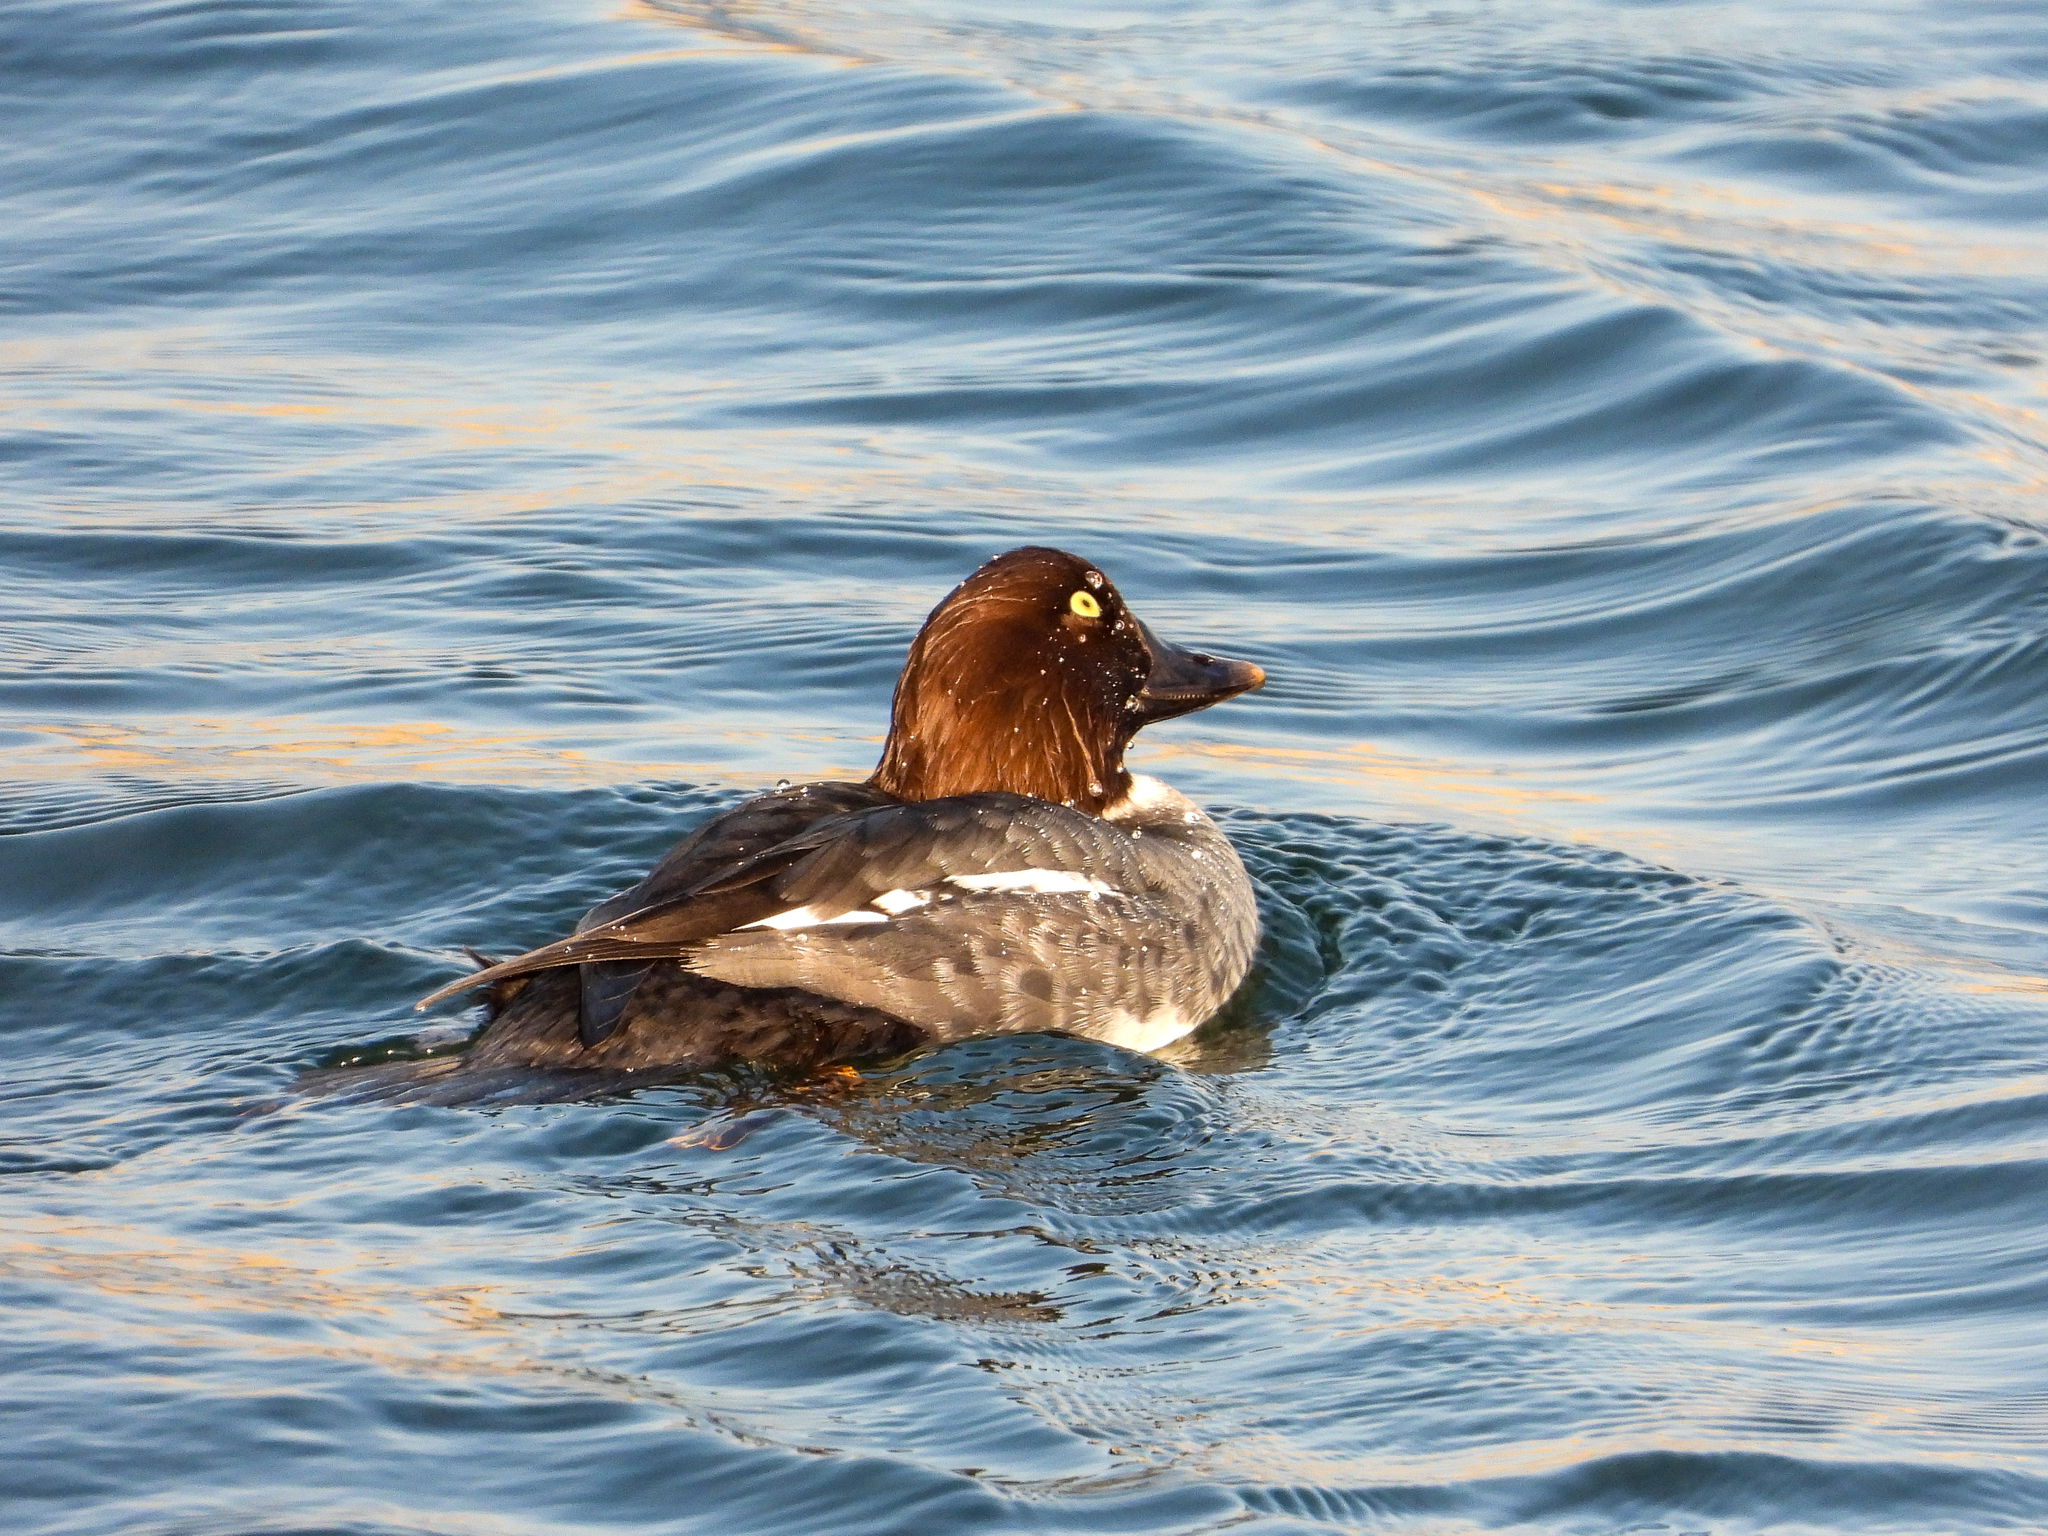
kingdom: Animalia
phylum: Chordata
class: Aves
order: Anseriformes
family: Anatidae
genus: Bucephala
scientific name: Bucephala clangula
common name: Common goldeneye
